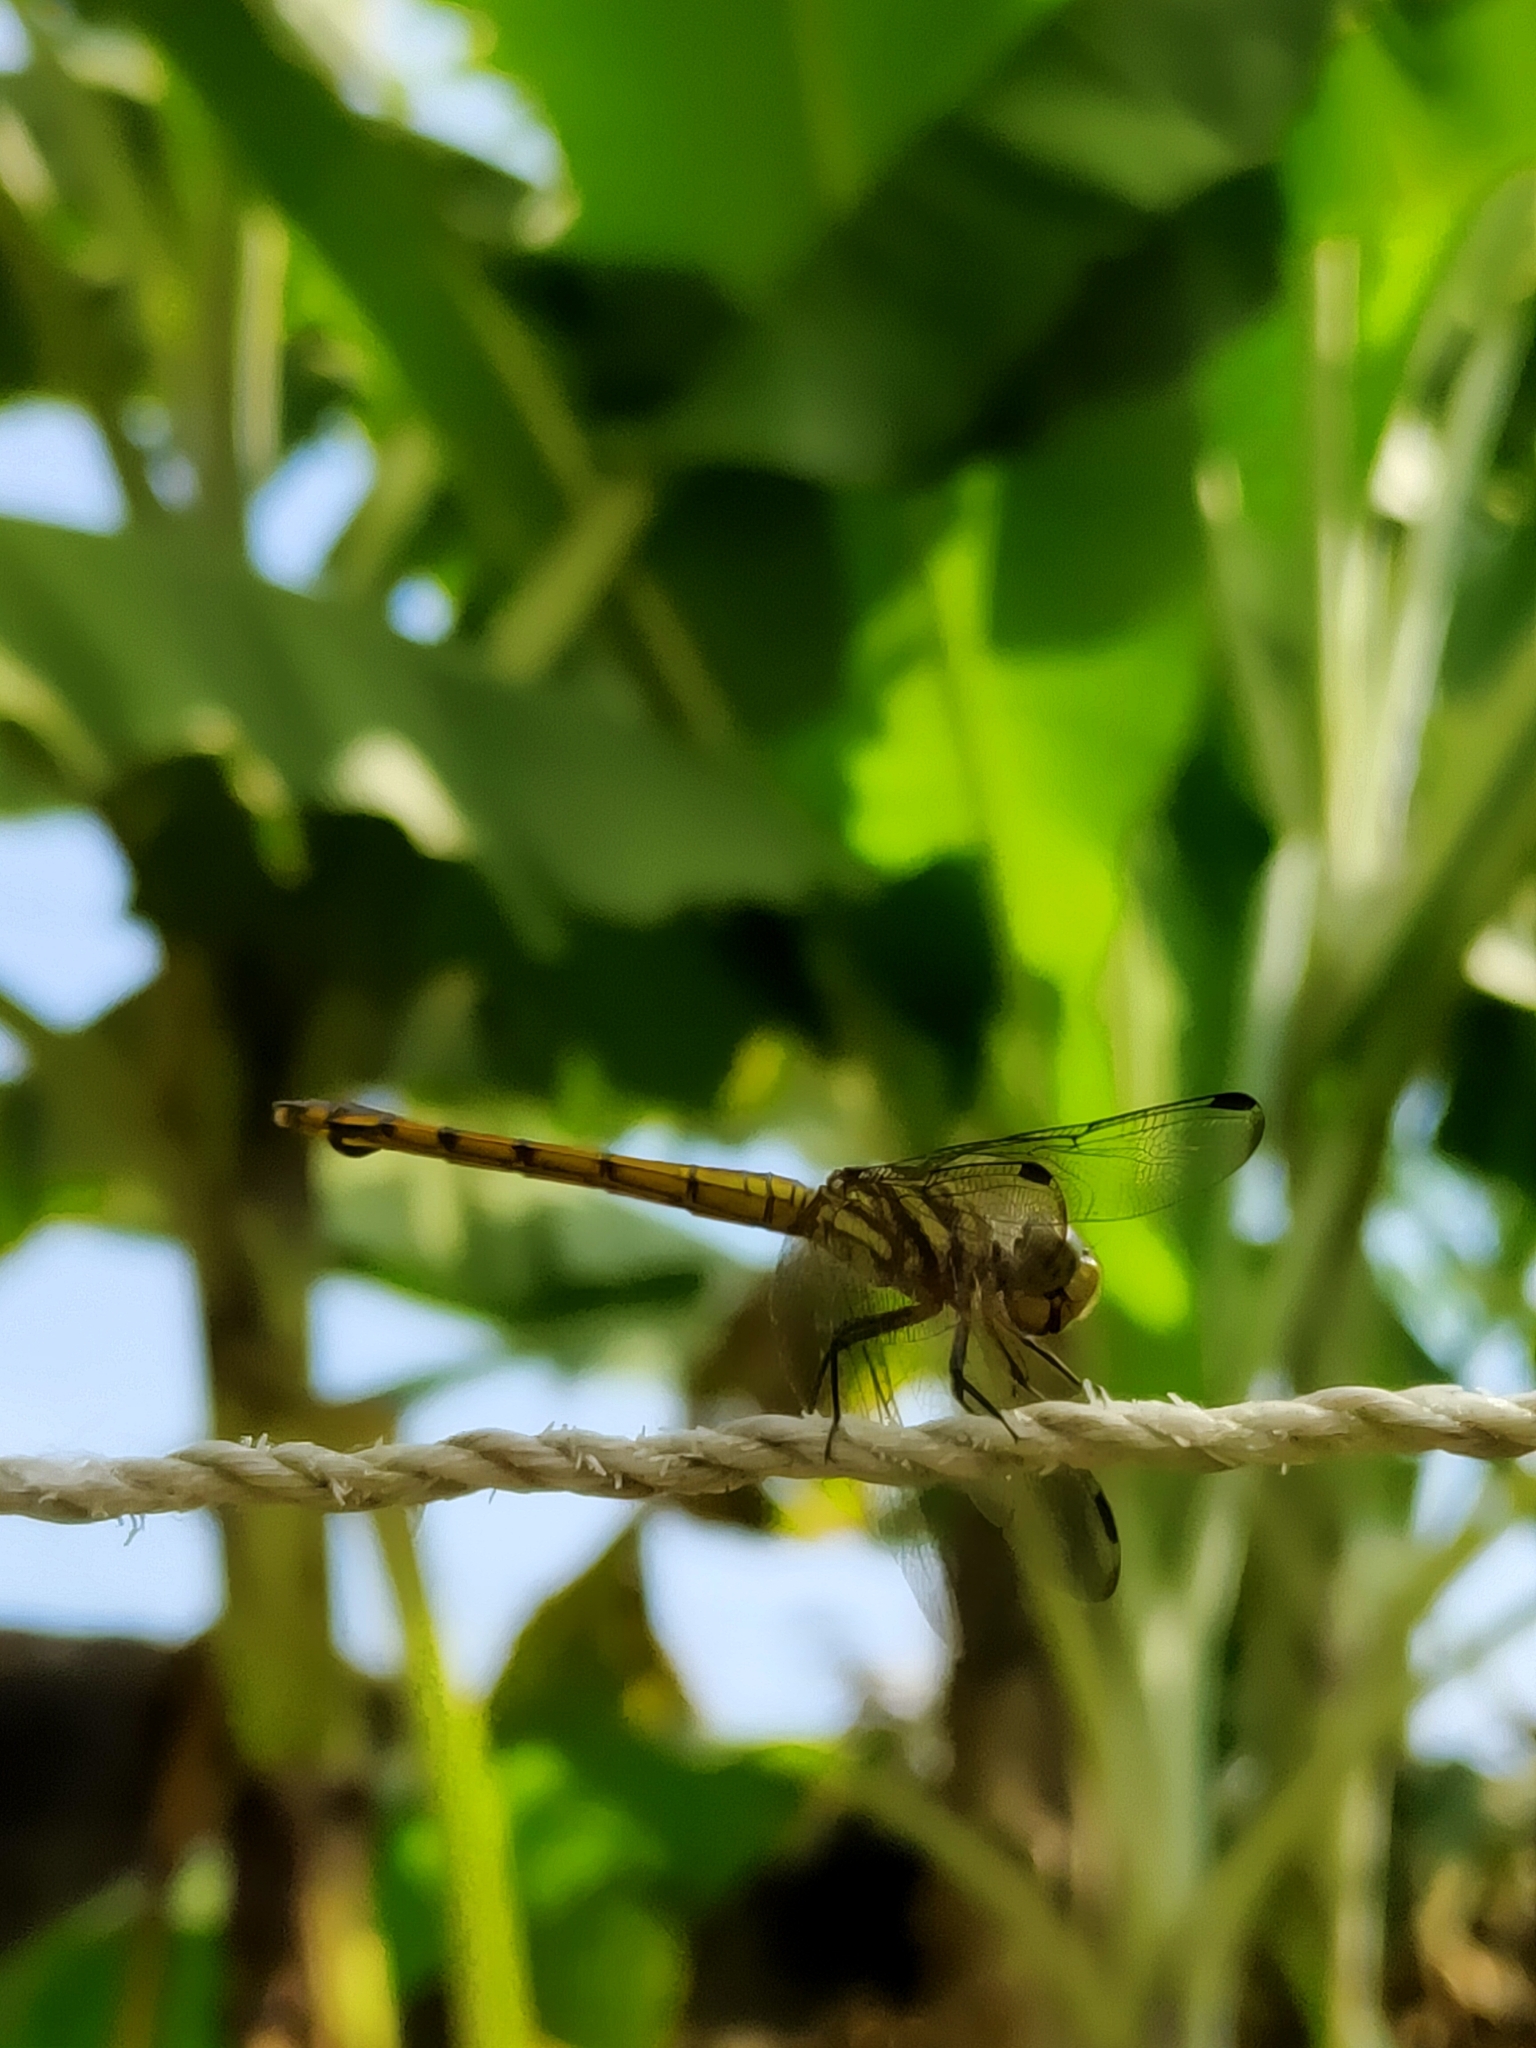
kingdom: Animalia
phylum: Arthropoda
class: Insecta
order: Odonata
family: Libellulidae
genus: Potamarcha
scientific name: Potamarcha congener
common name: Blue chaser
